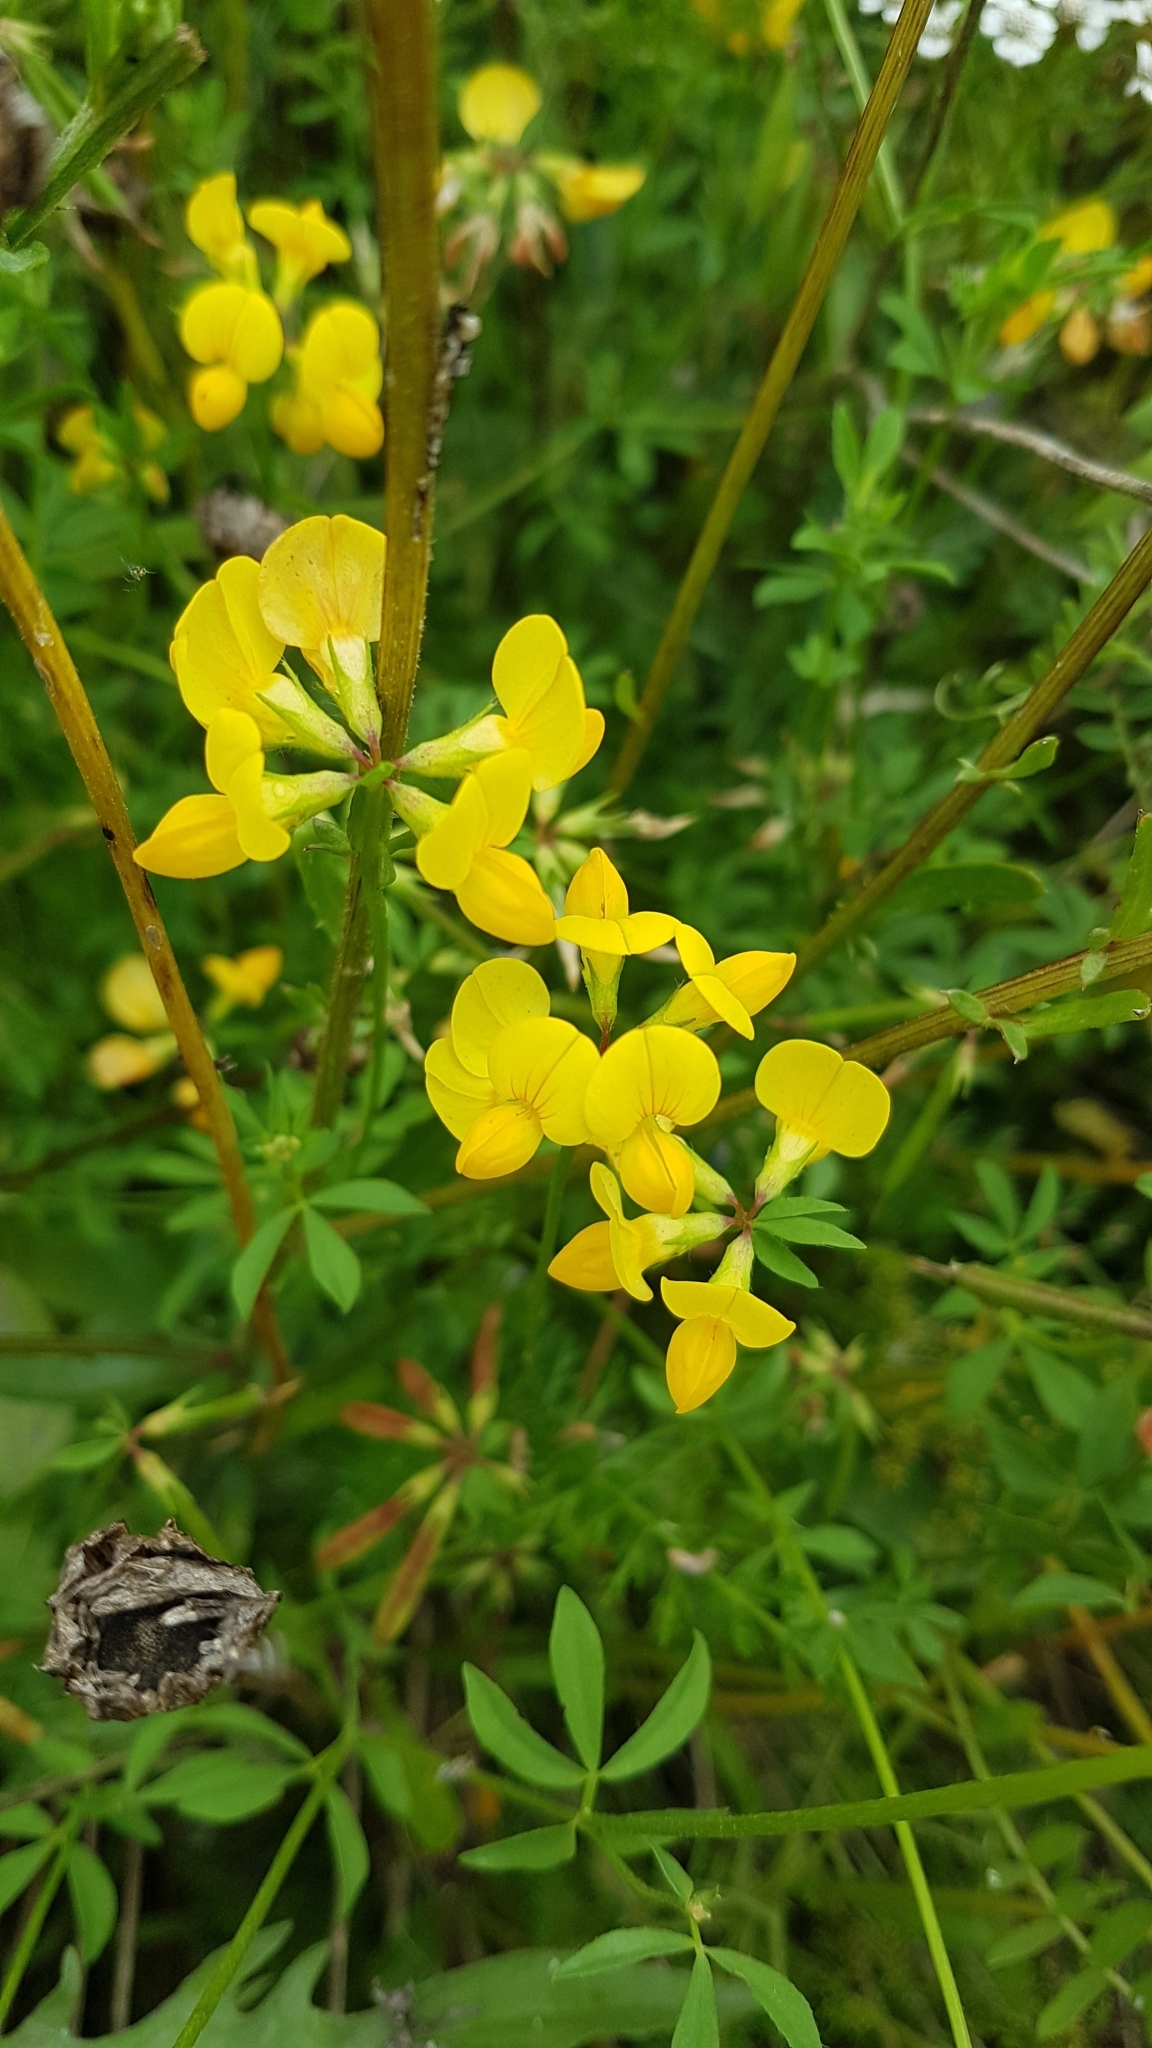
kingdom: Plantae
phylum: Tracheophyta
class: Magnoliopsida
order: Fabales
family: Fabaceae
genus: Lotus
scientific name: Lotus corniculatus
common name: Common bird's-foot-trefoil
